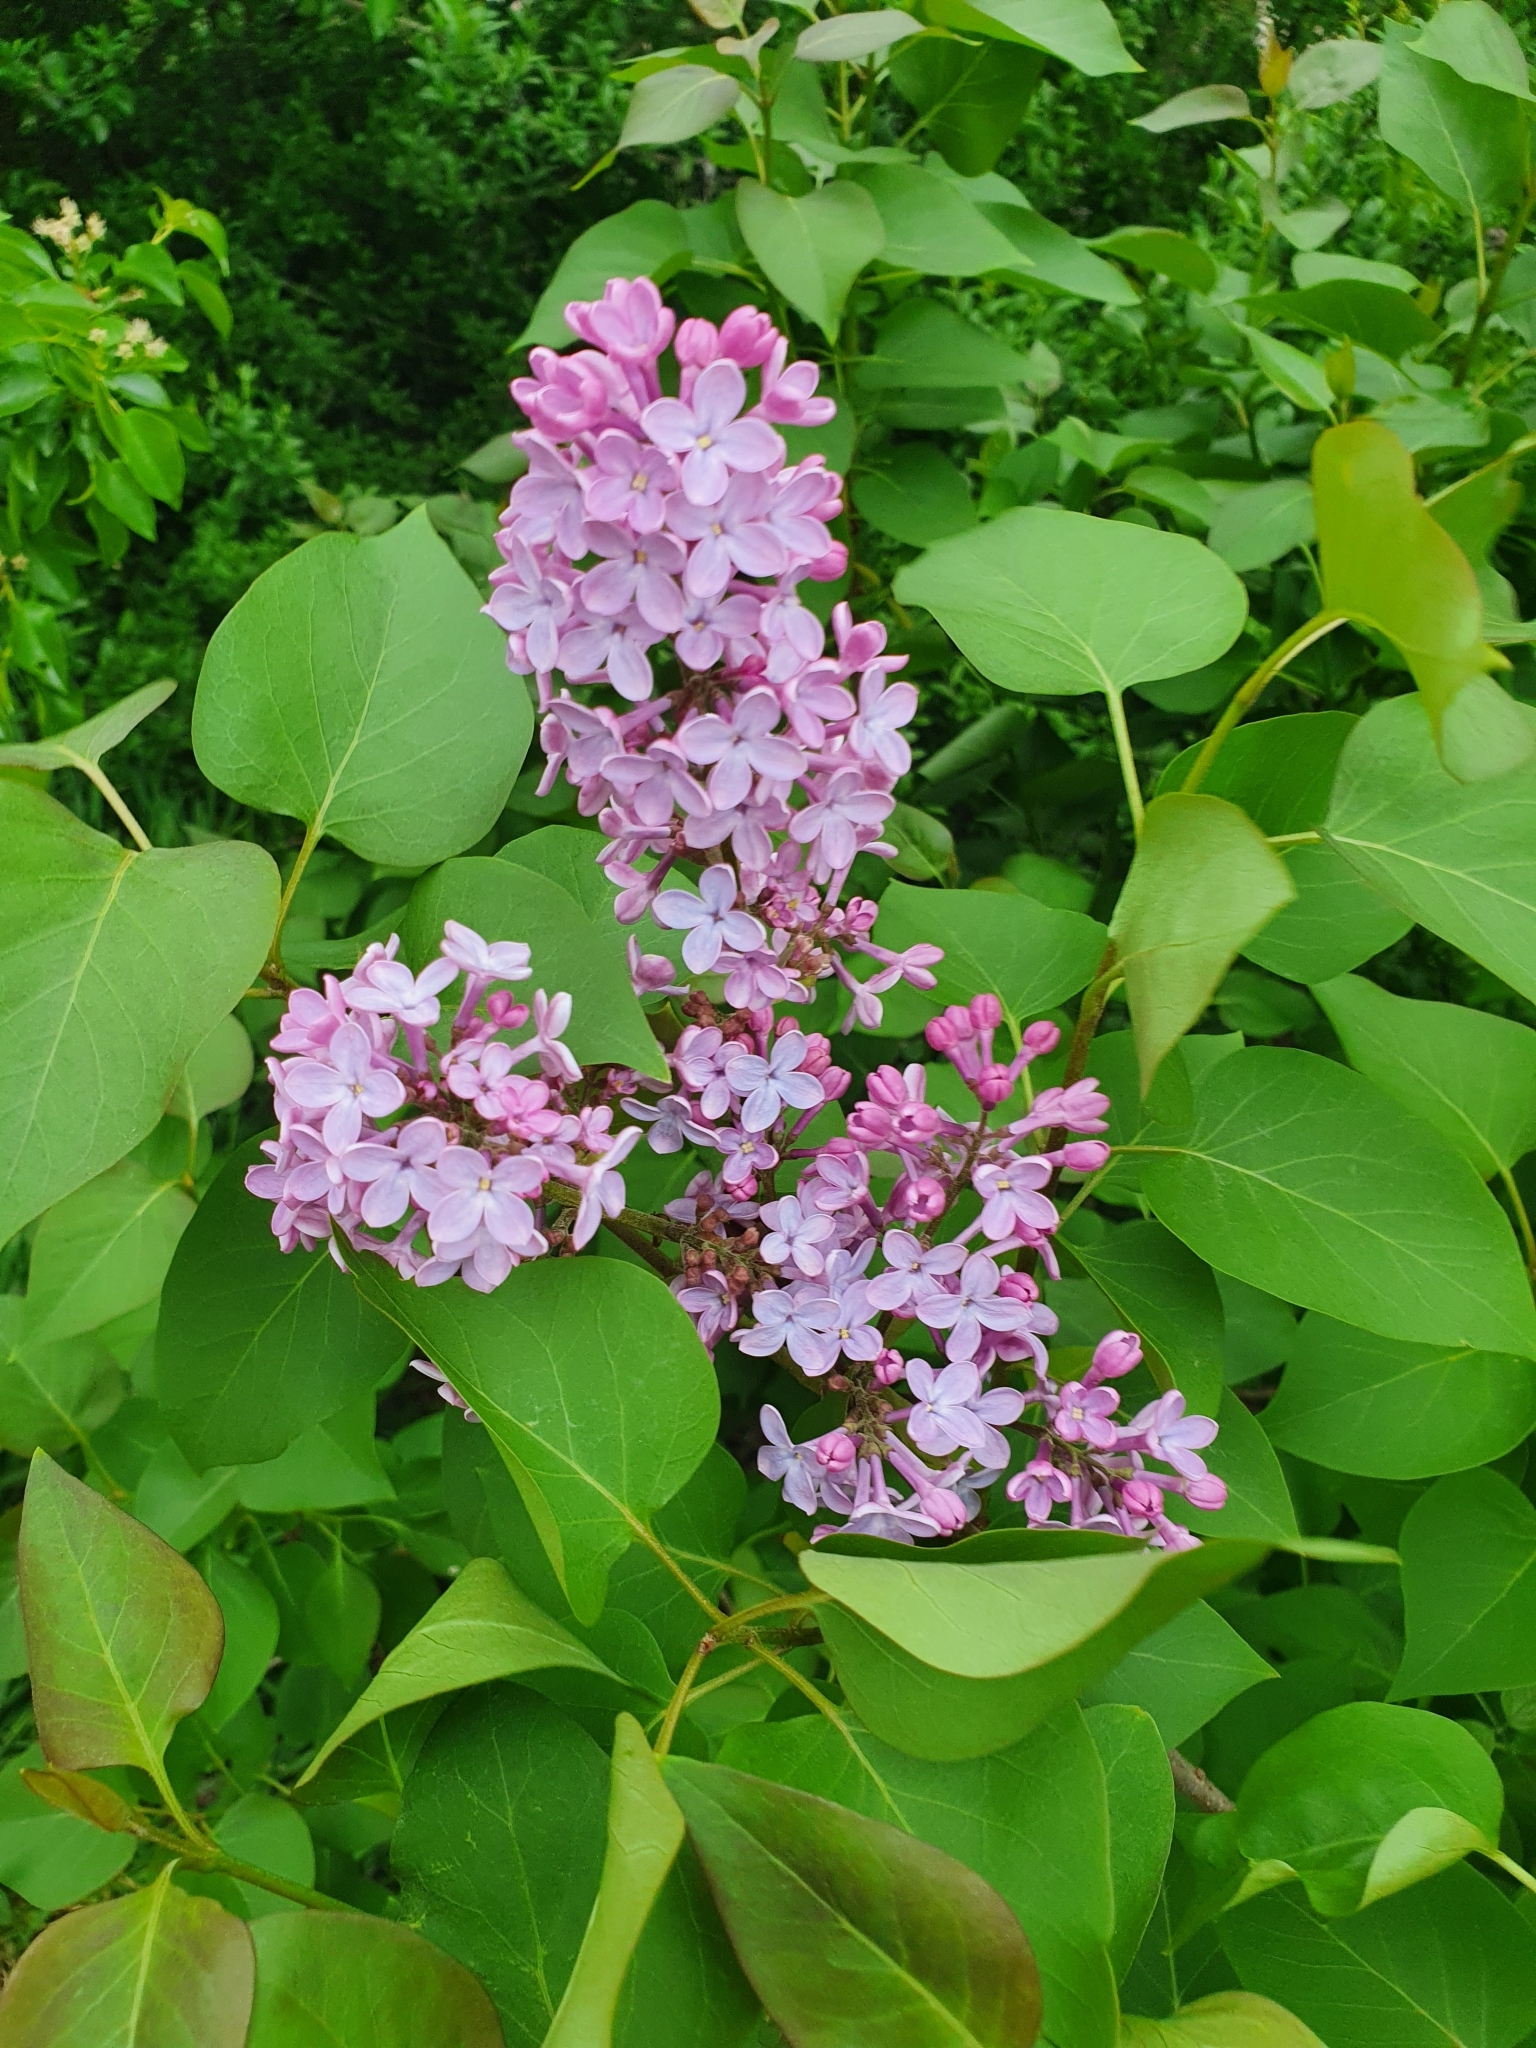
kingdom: Plantae
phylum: Tracheophyta
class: Magnoliopsida
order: Lamiales
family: Oleaceae
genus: Syringa
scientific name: Syringa vulgaris
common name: Common lilac
